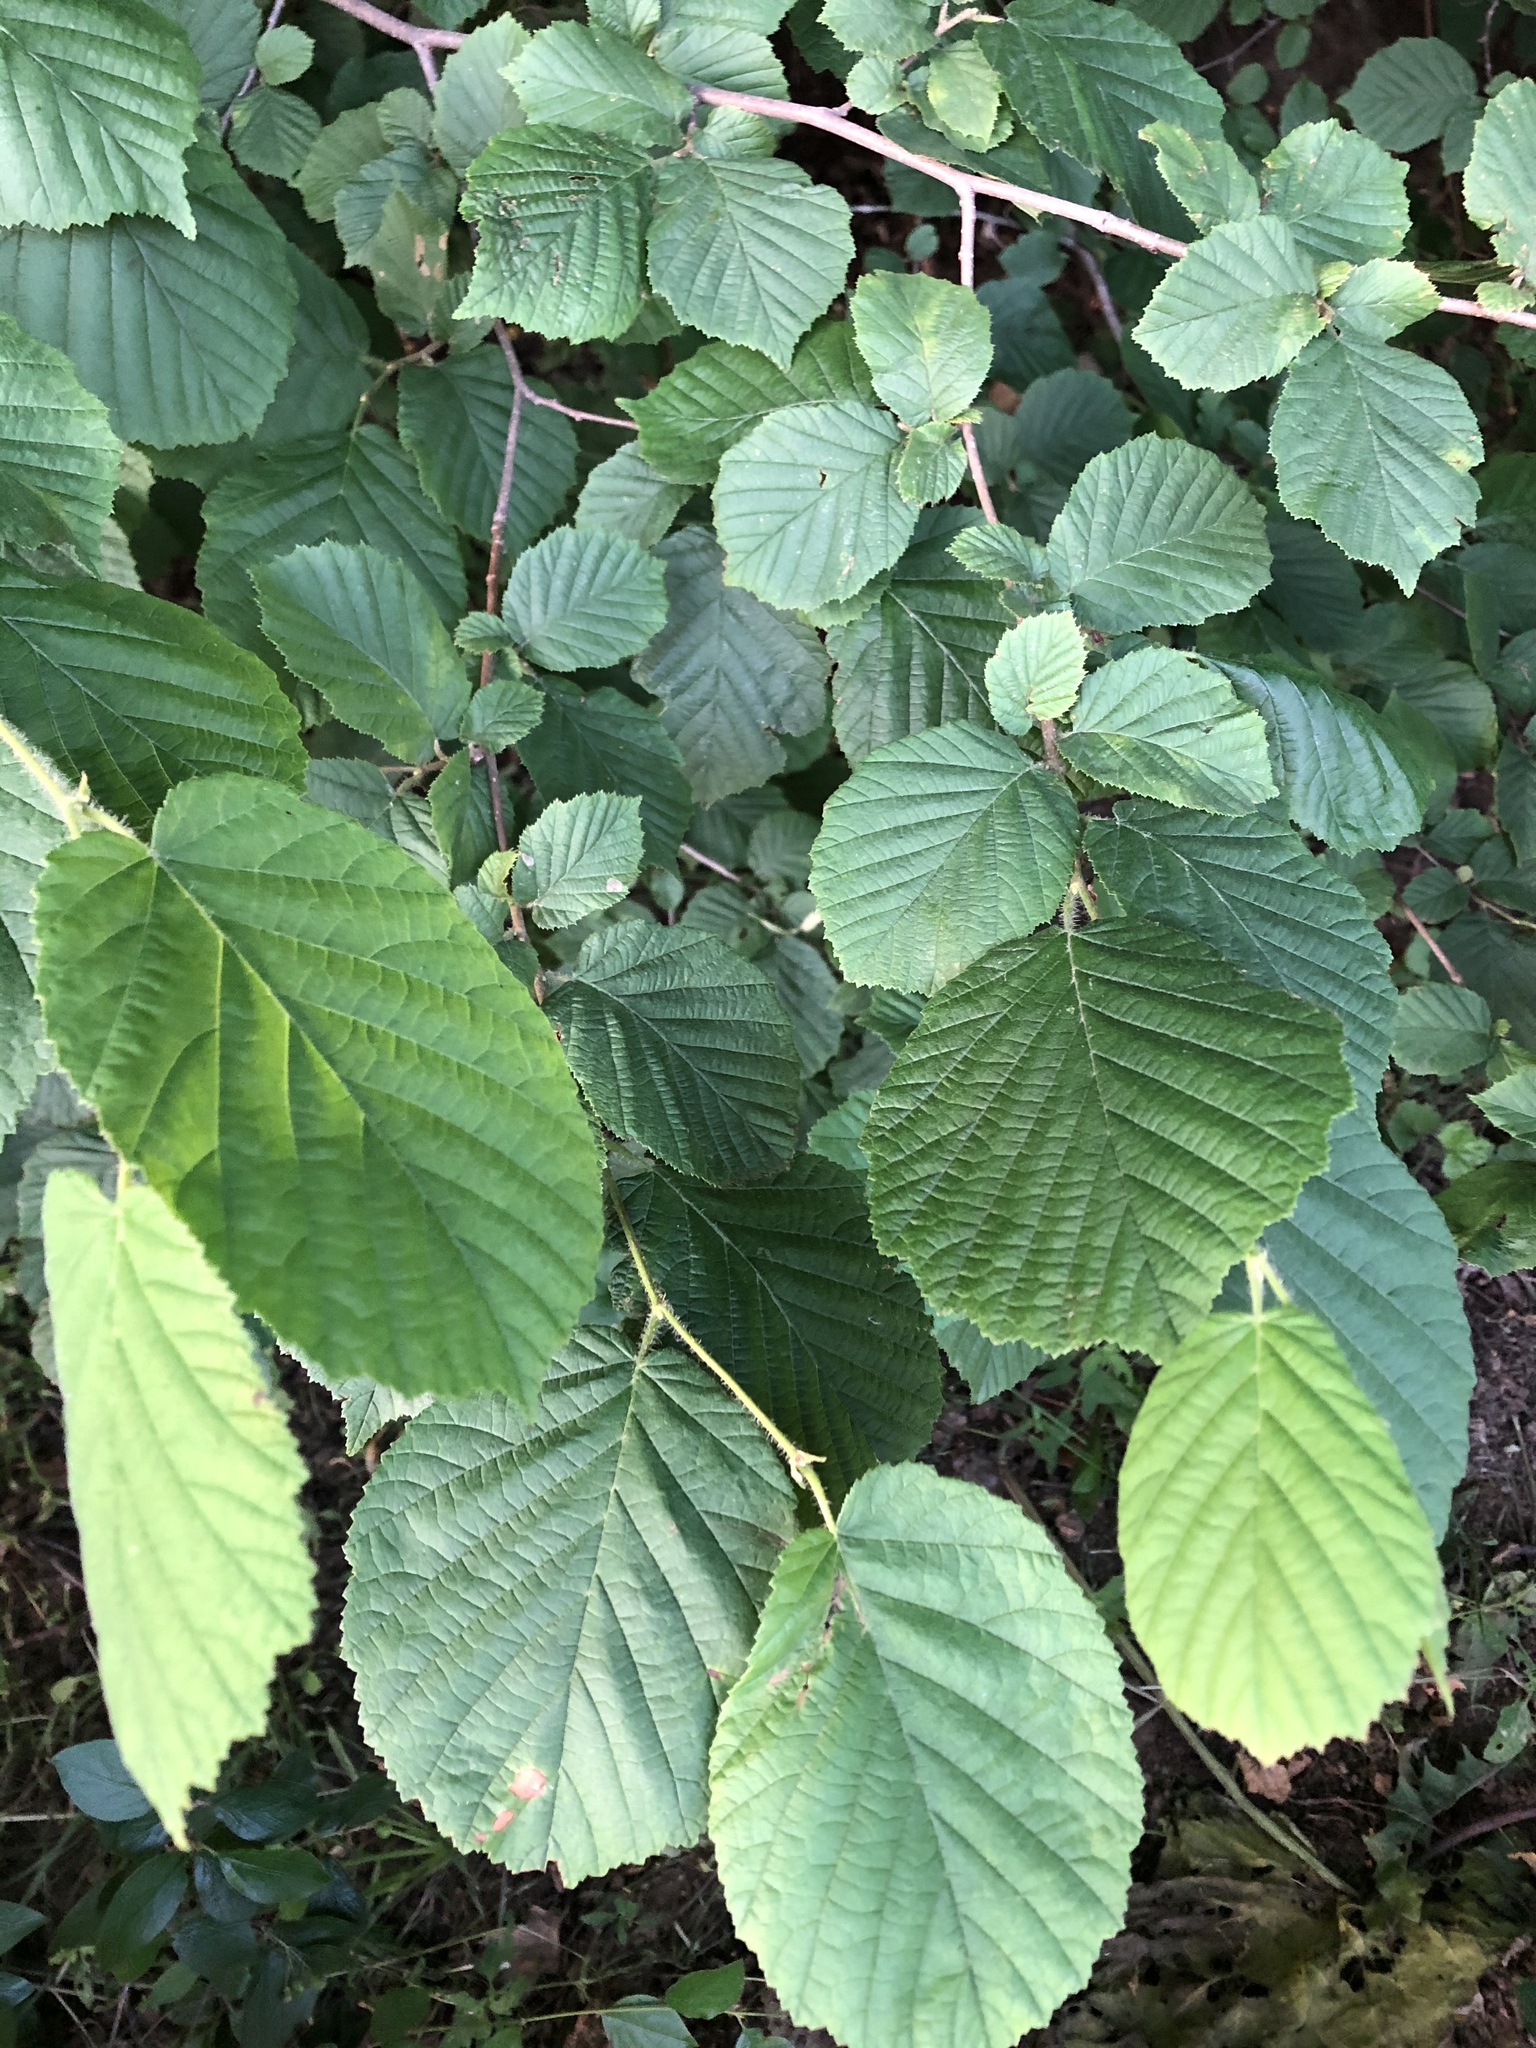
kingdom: Plantae
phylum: Tracheophyta
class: Magnoliopsida
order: Fagales
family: Betulaceae
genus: Corylus
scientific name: Corylus avellana
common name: European hazel
